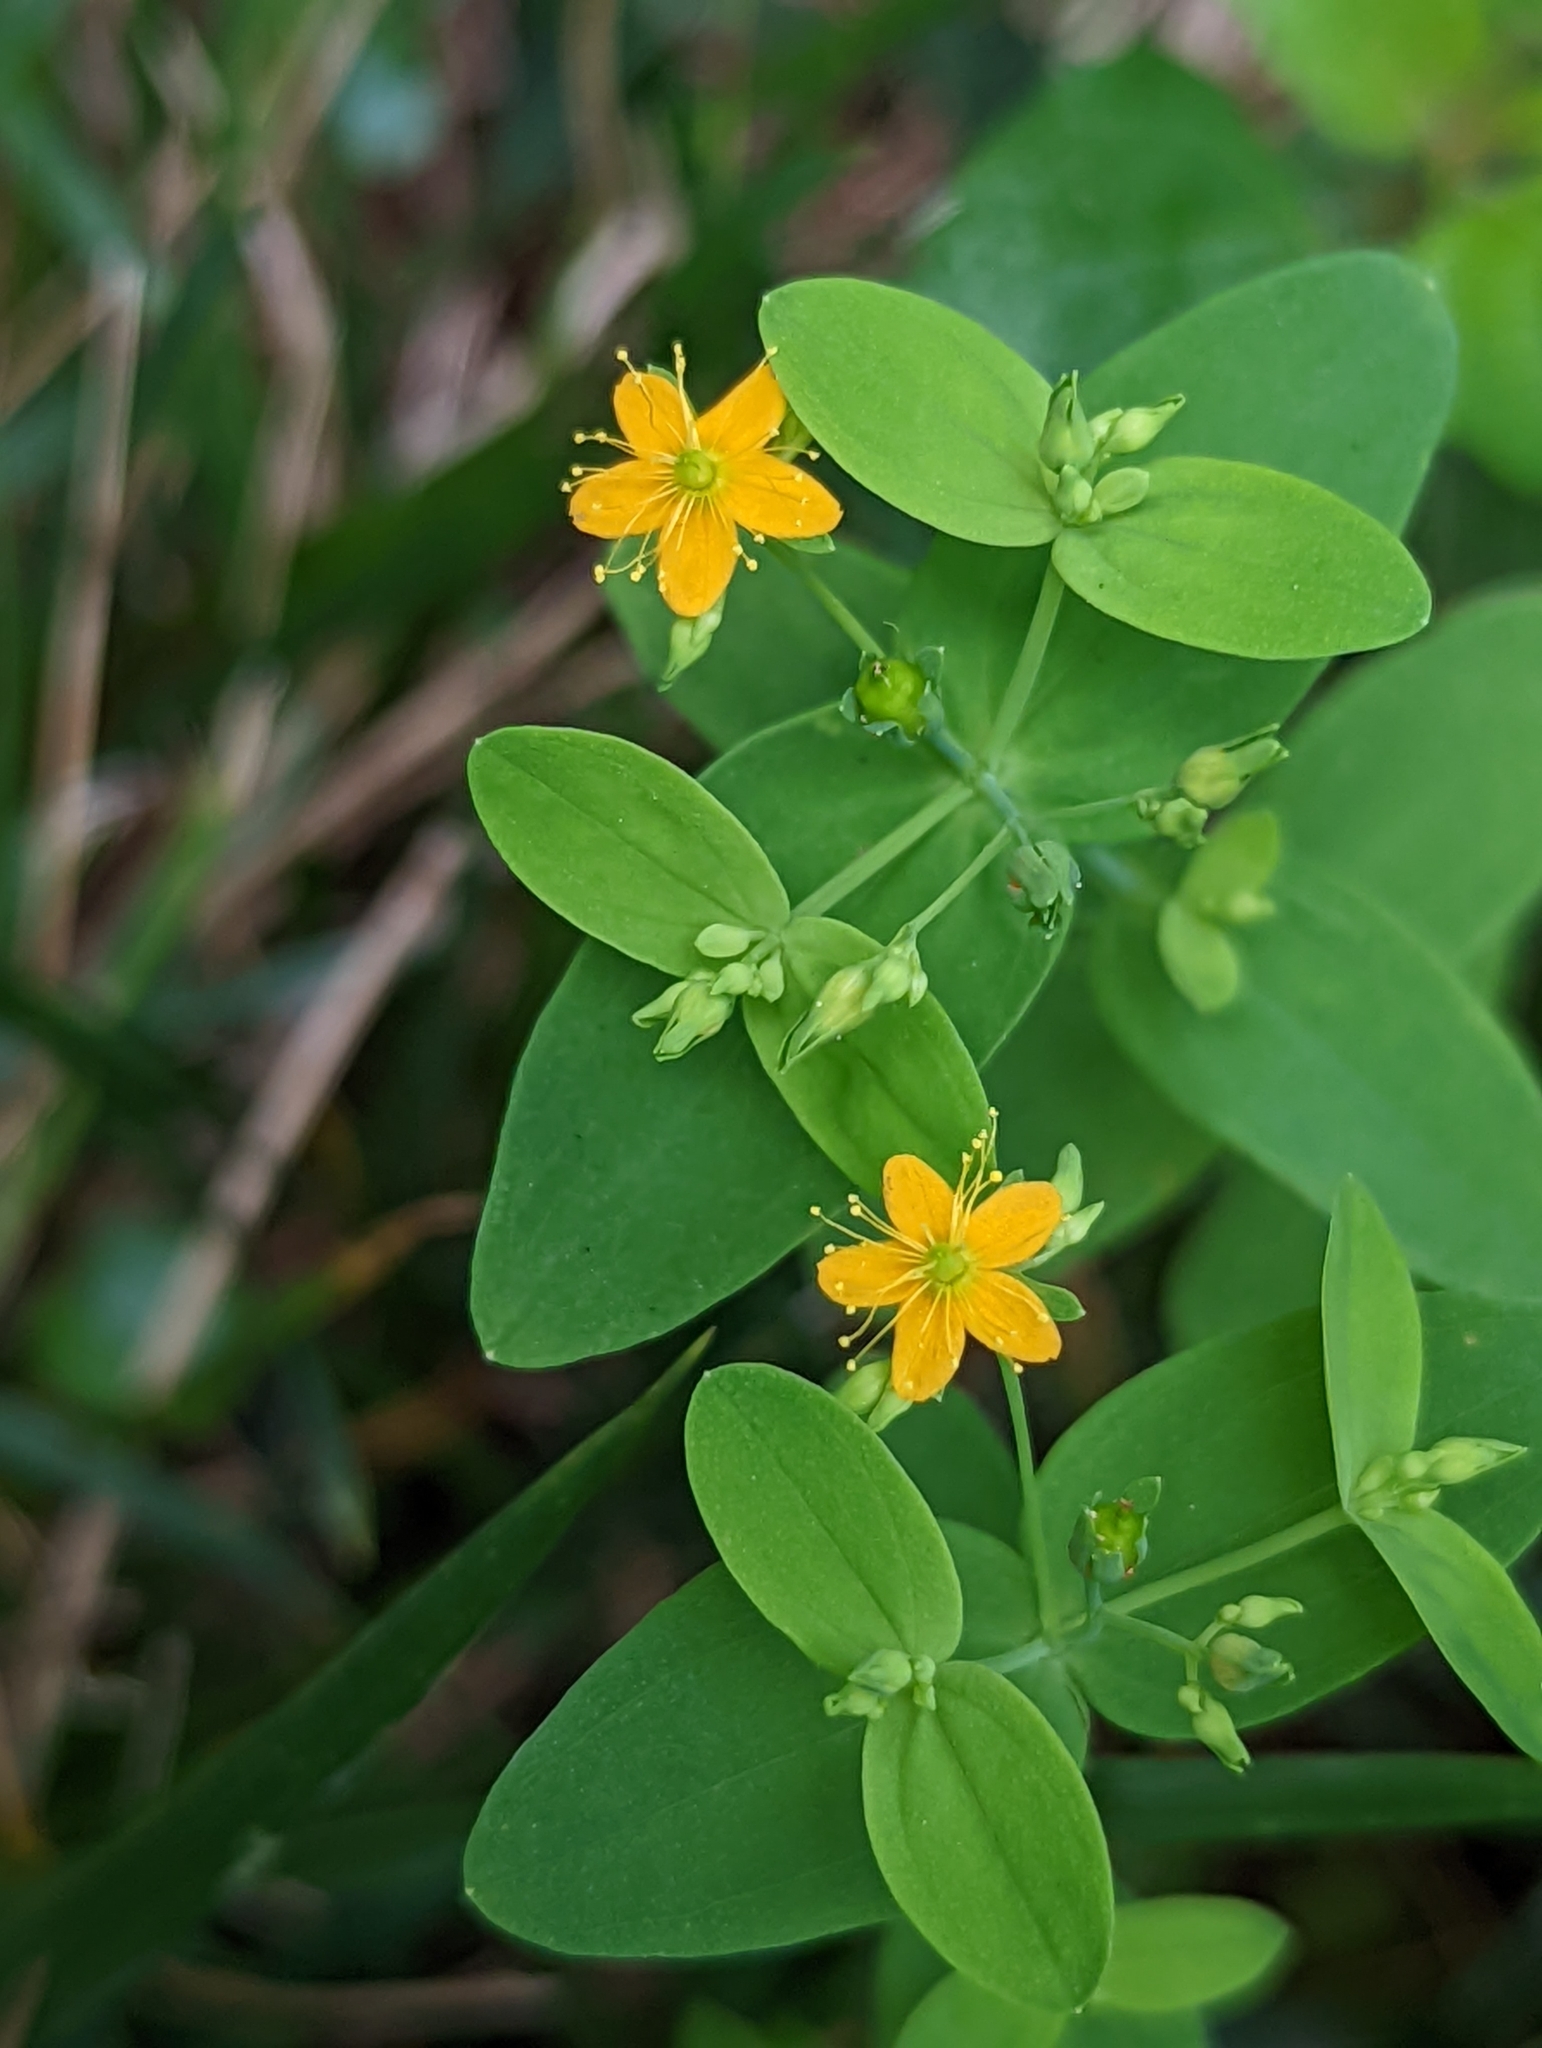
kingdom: Plantae
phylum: Tracheophyta
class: Magnoliopsida
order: Malpighiales
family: Hypericaceae
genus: Hypericum
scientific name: Hypericum mutilum
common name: Dwarf st. john's-wort
